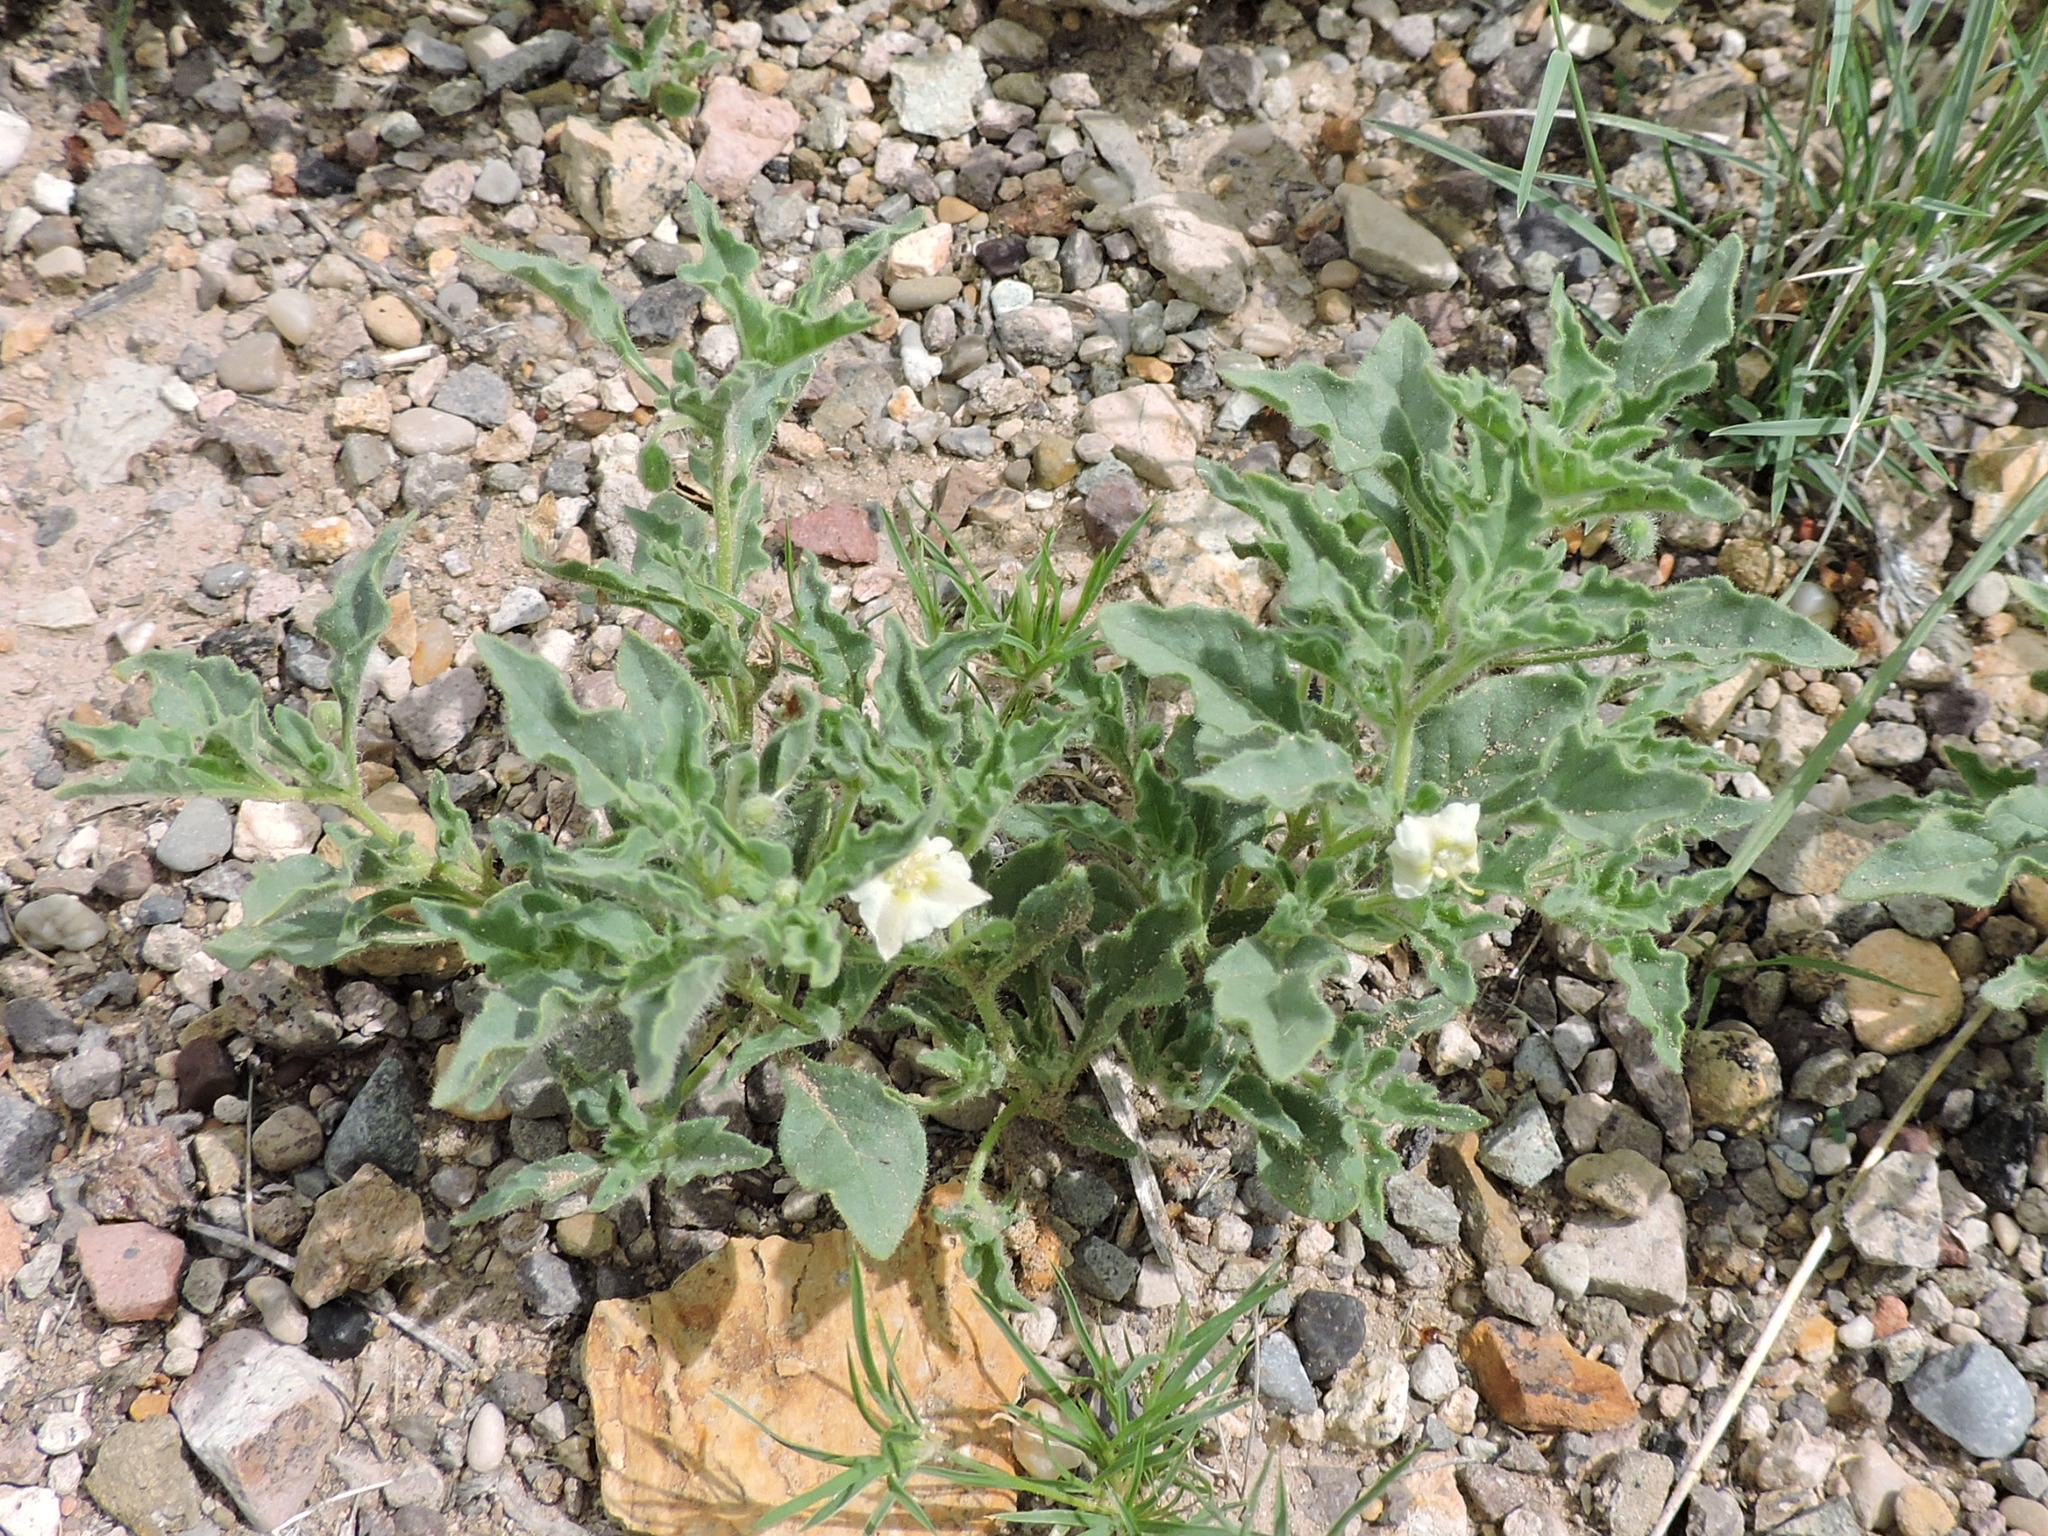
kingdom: Plantae
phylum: Tracheophyta
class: Magnoliopsida
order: Solanales
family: Solanaceae
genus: Chamaesaracha
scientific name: Chamaesaracha sordida
